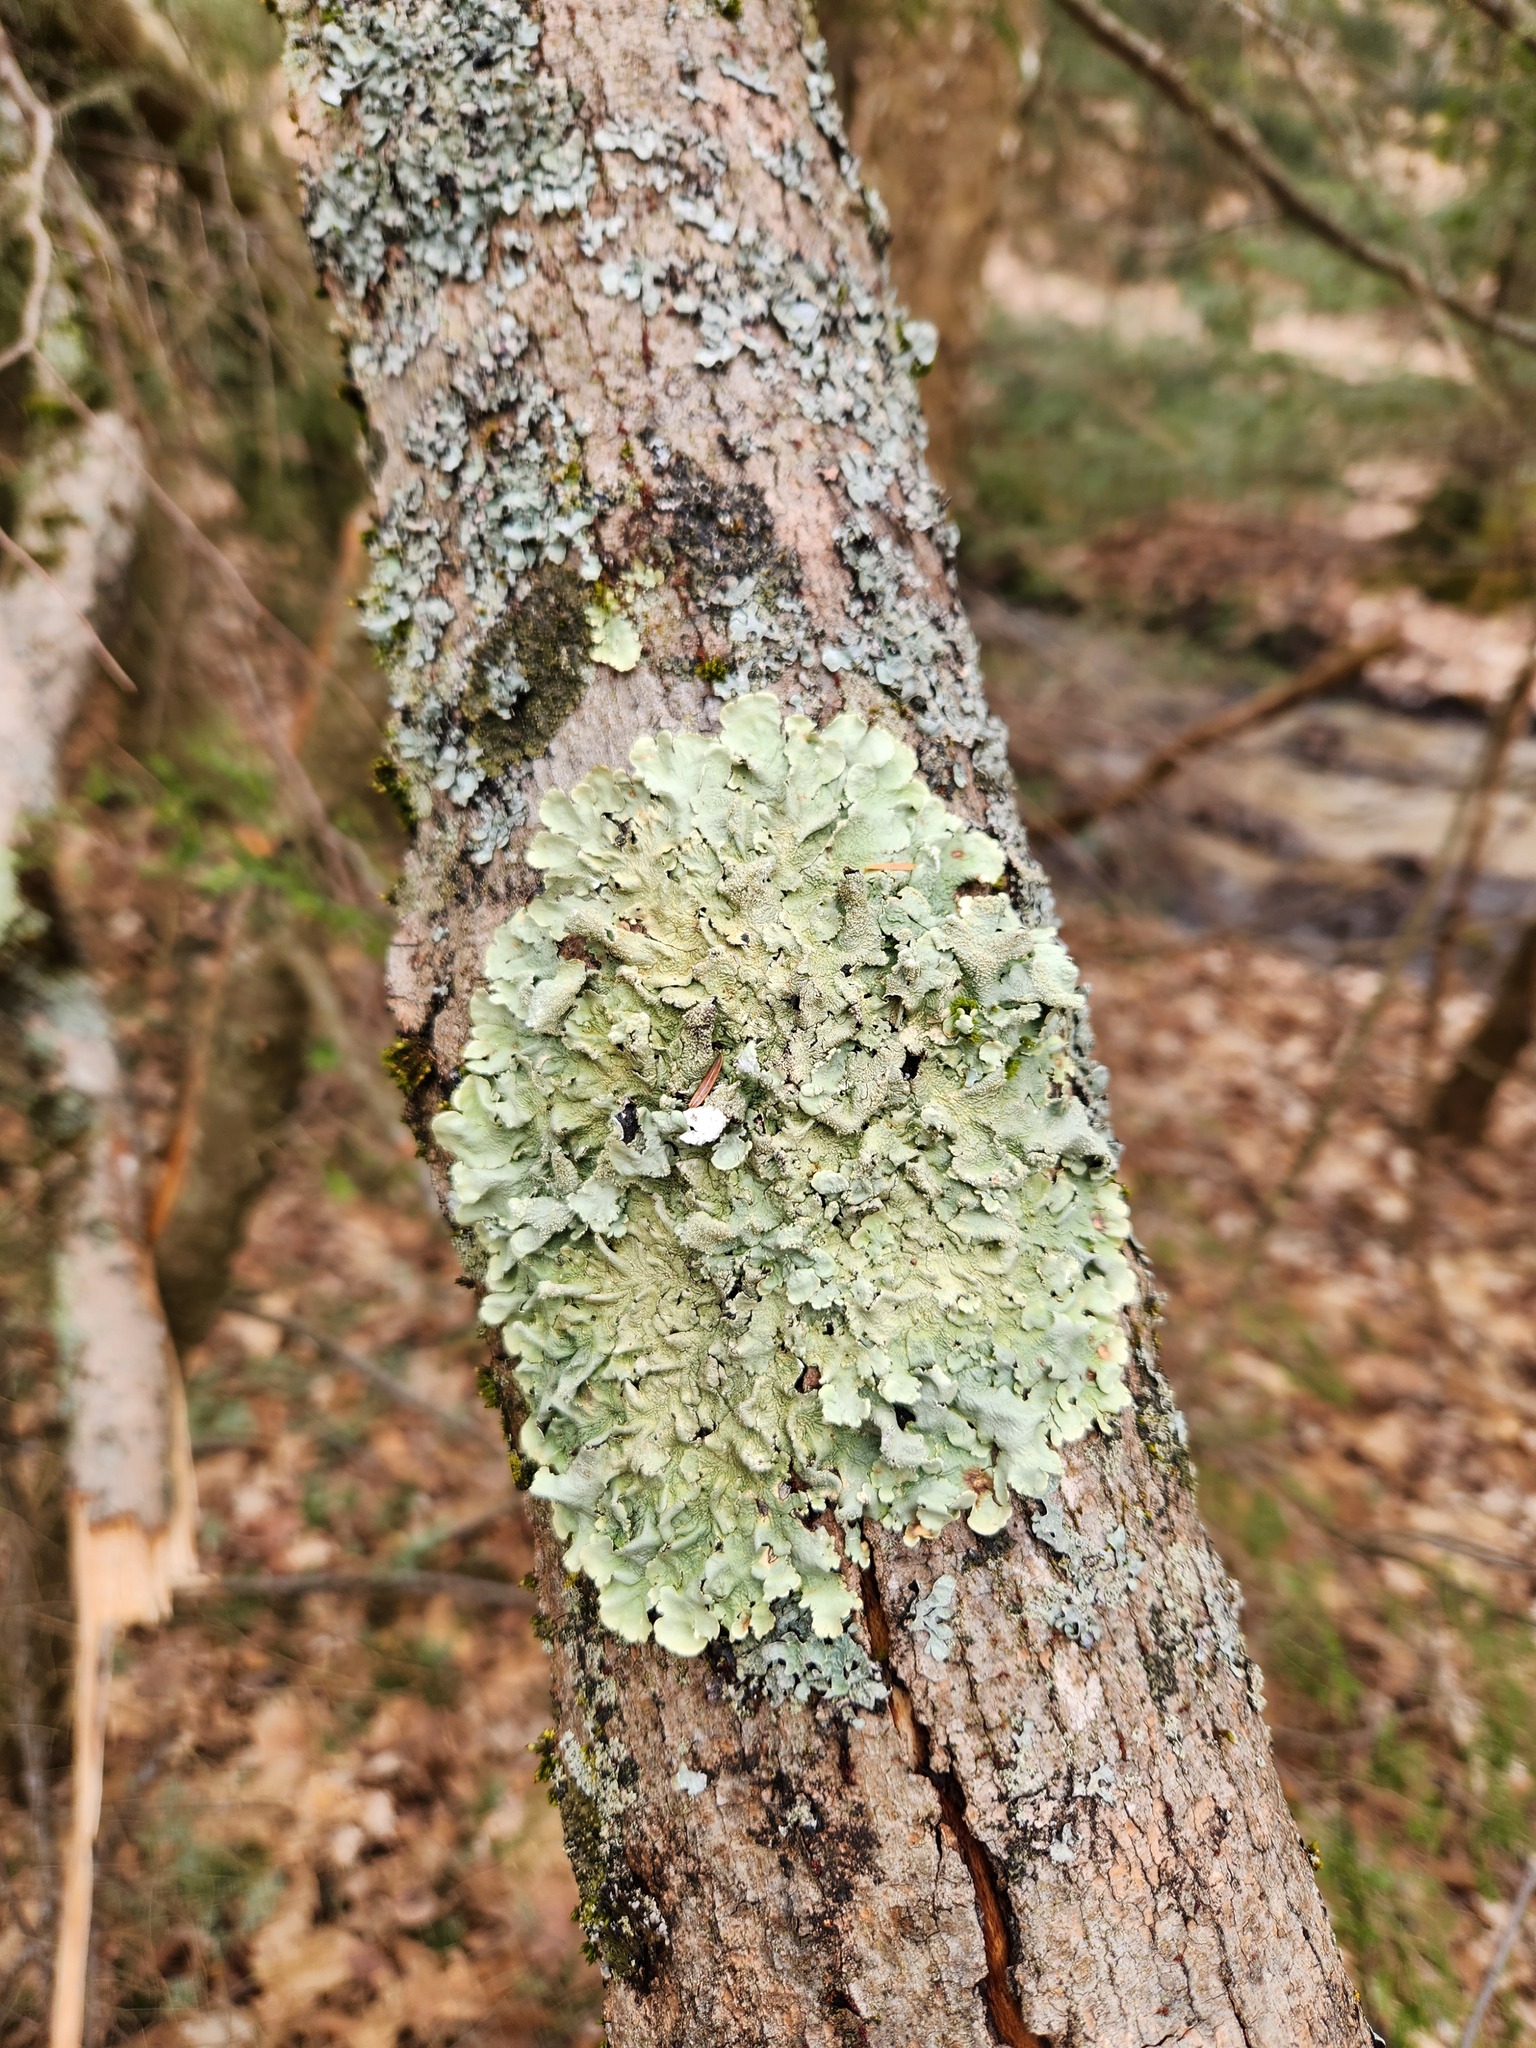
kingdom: Fungi
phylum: Ascomycota
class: Lecanoromycetes
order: Lecanorales
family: Parmeliaceae
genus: Flavoparmelia
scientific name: Flavoparmelia caperata
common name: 40-mile per hour lichen
